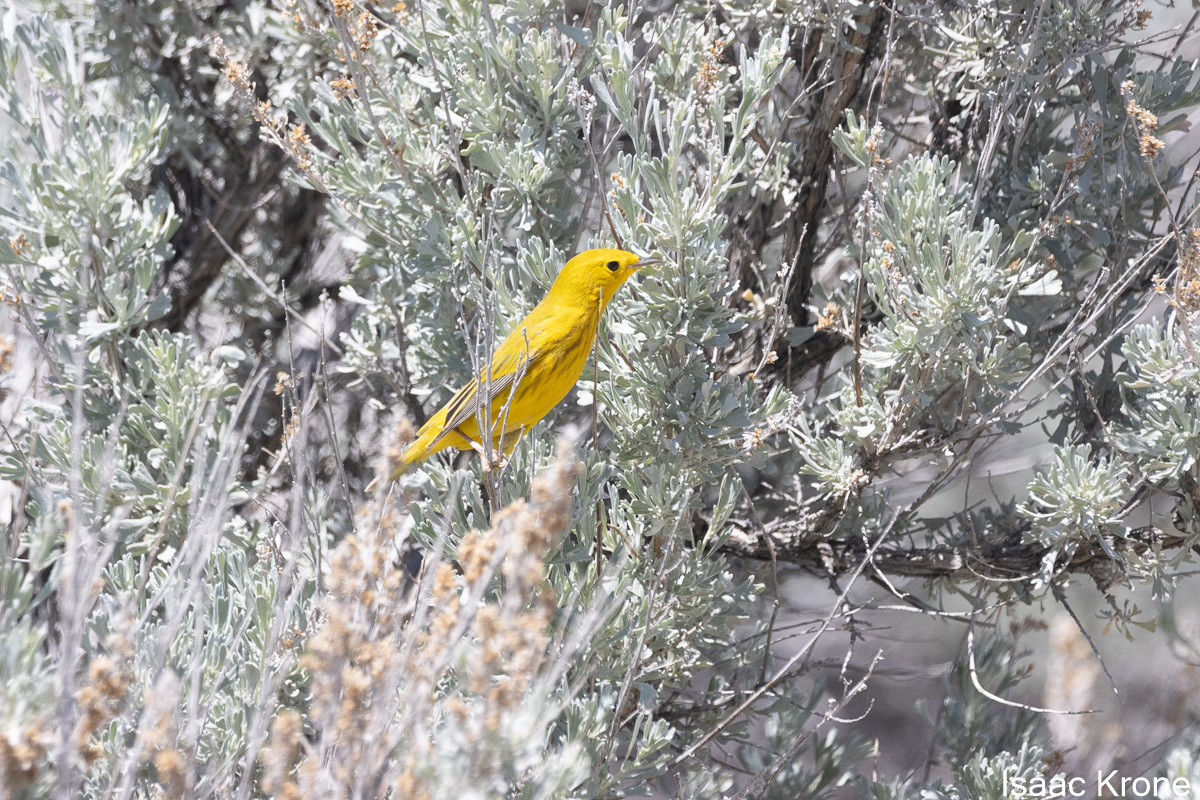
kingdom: Animalia
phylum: Chordata
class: Aves
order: Passeriformes
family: Parulidae
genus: Setophaga
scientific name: Setophaga petechia
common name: Yellow warbler
